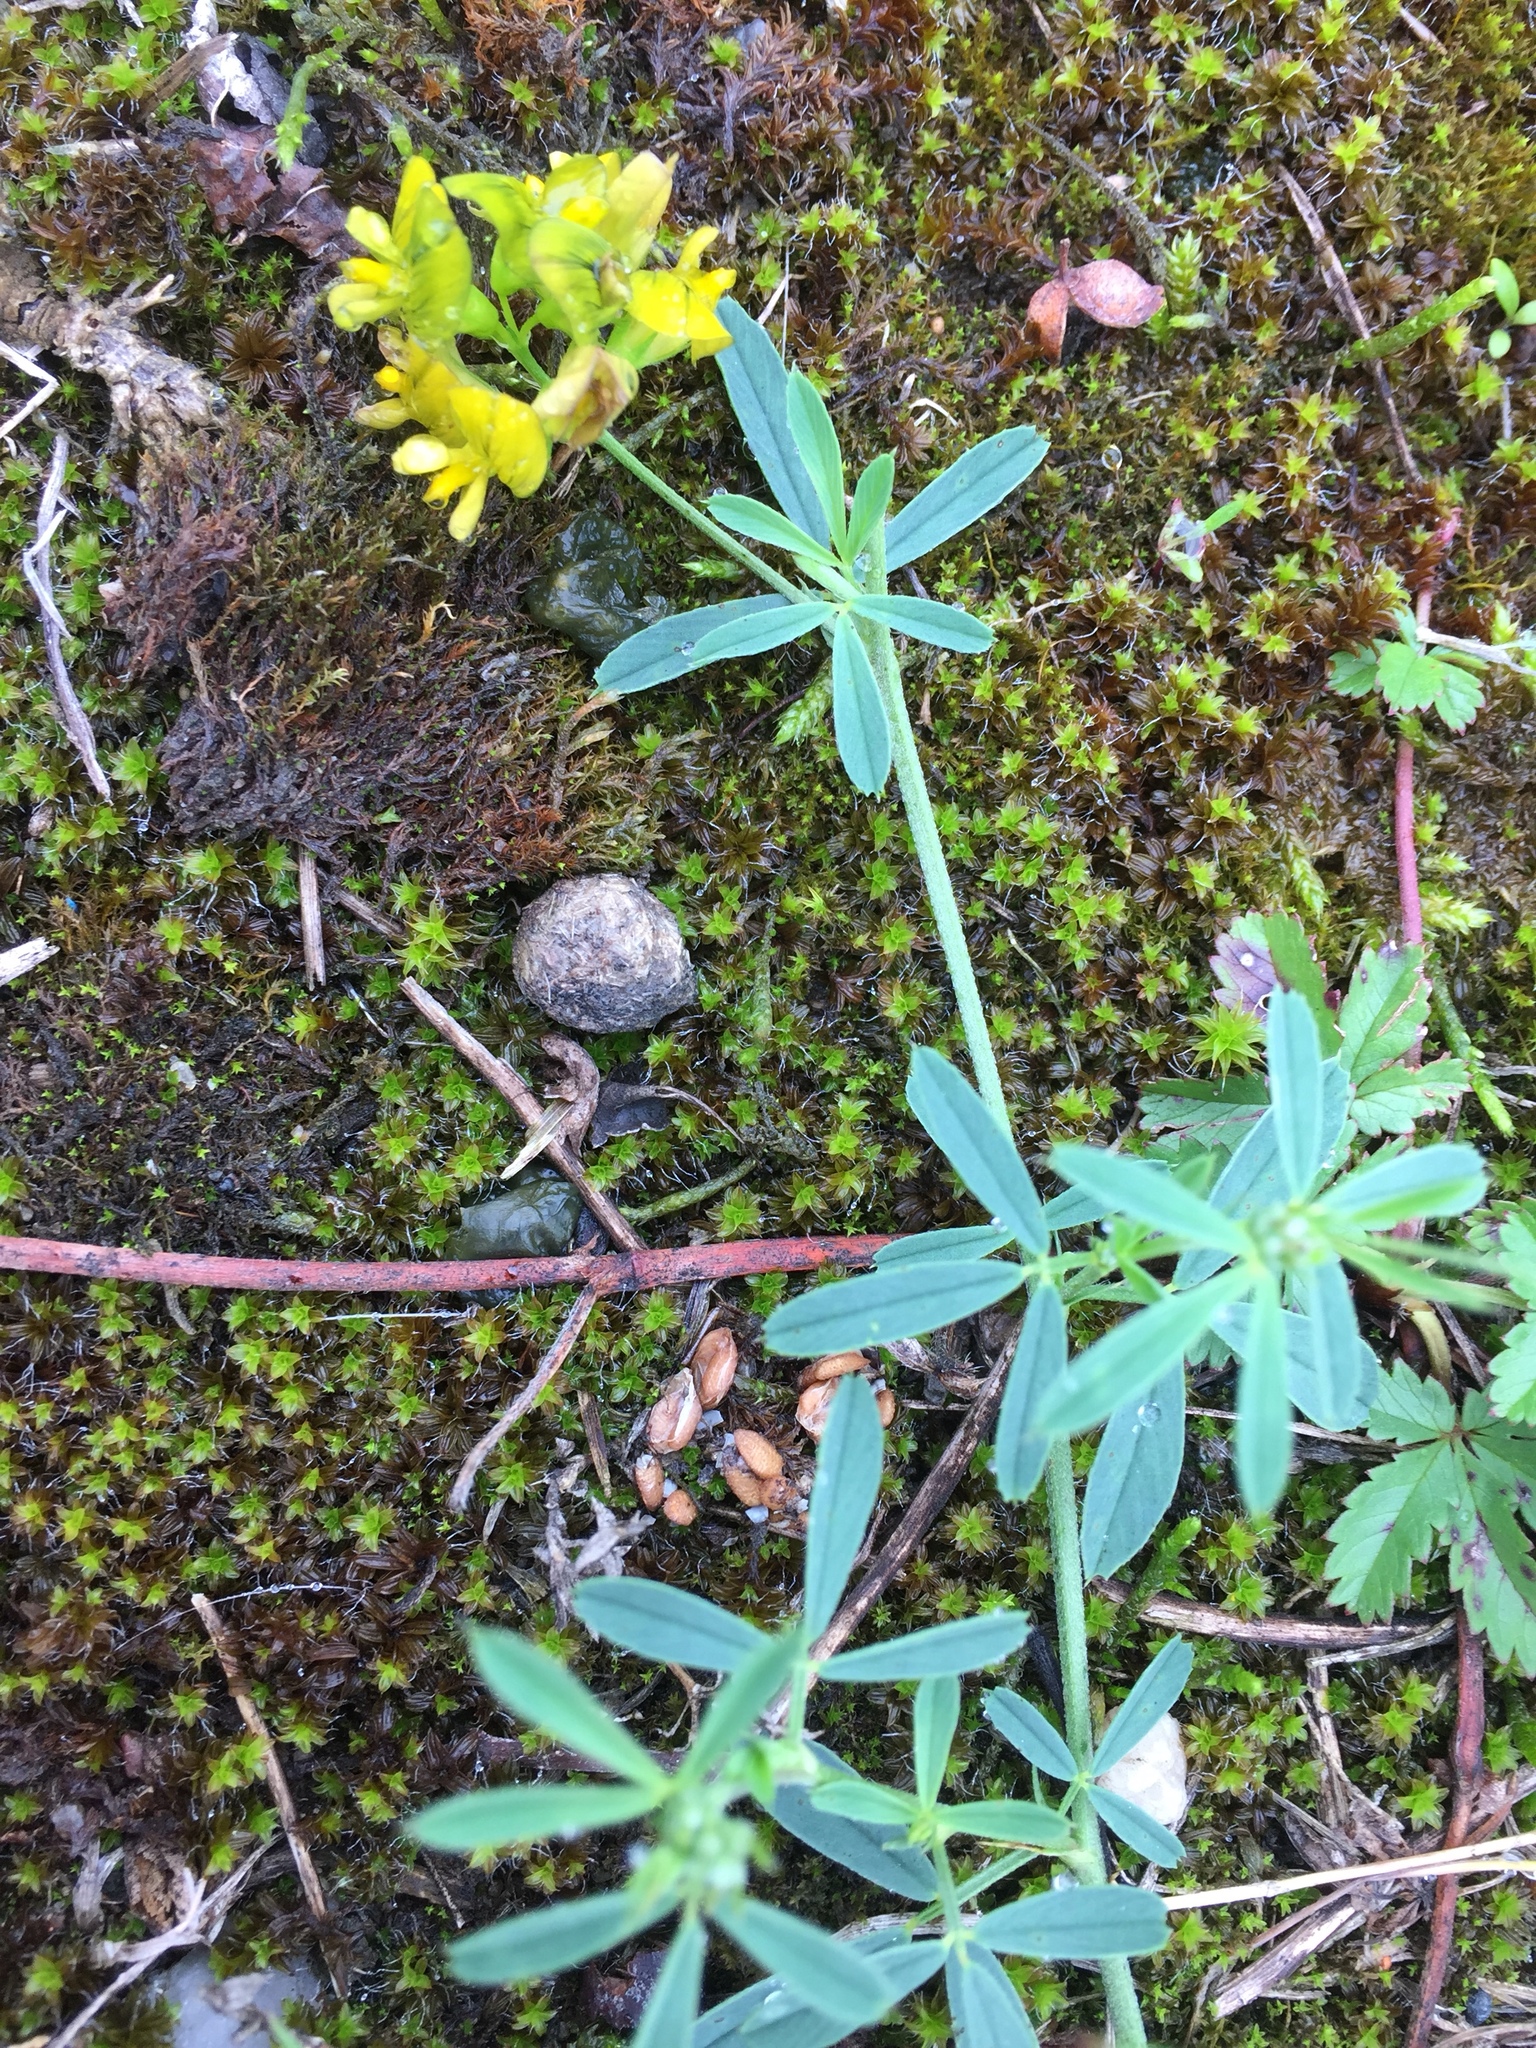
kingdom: Plantae
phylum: Tracheophyta
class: Magnoliopsida
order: Fabales
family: Fabaceae
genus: Medicago
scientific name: Medicago falcata
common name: Sickle medick
